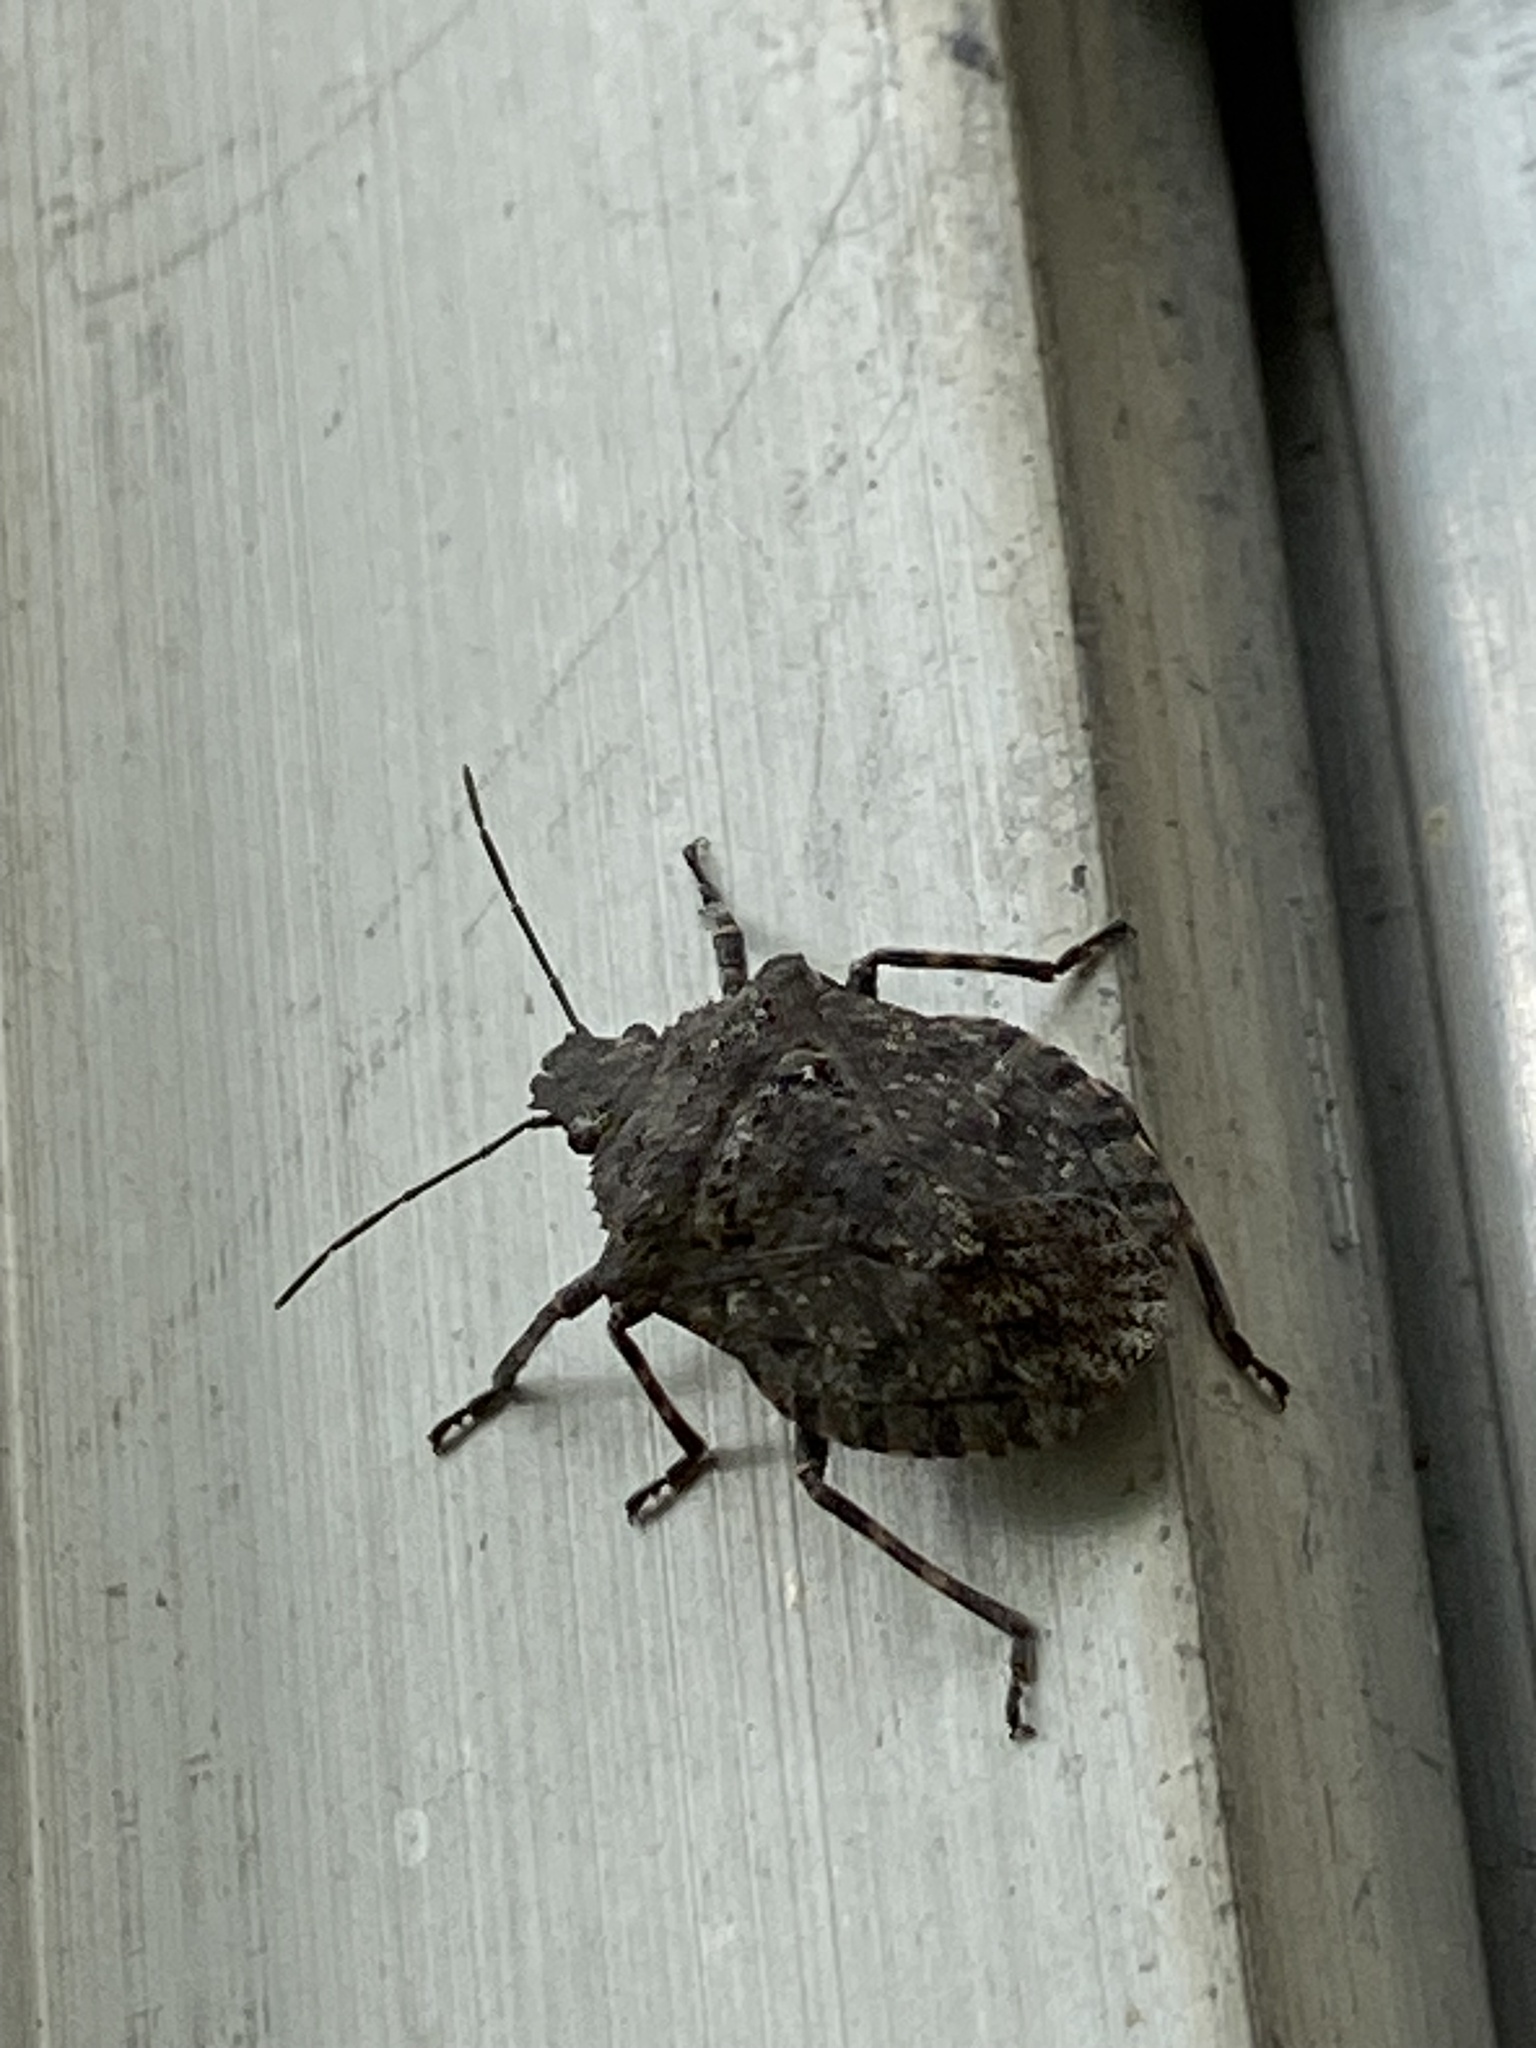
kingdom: Animalia
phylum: Arthropoda
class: Insecta
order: Hemiptera
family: Pentatomidae
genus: Brochymena
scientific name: Brochymena
